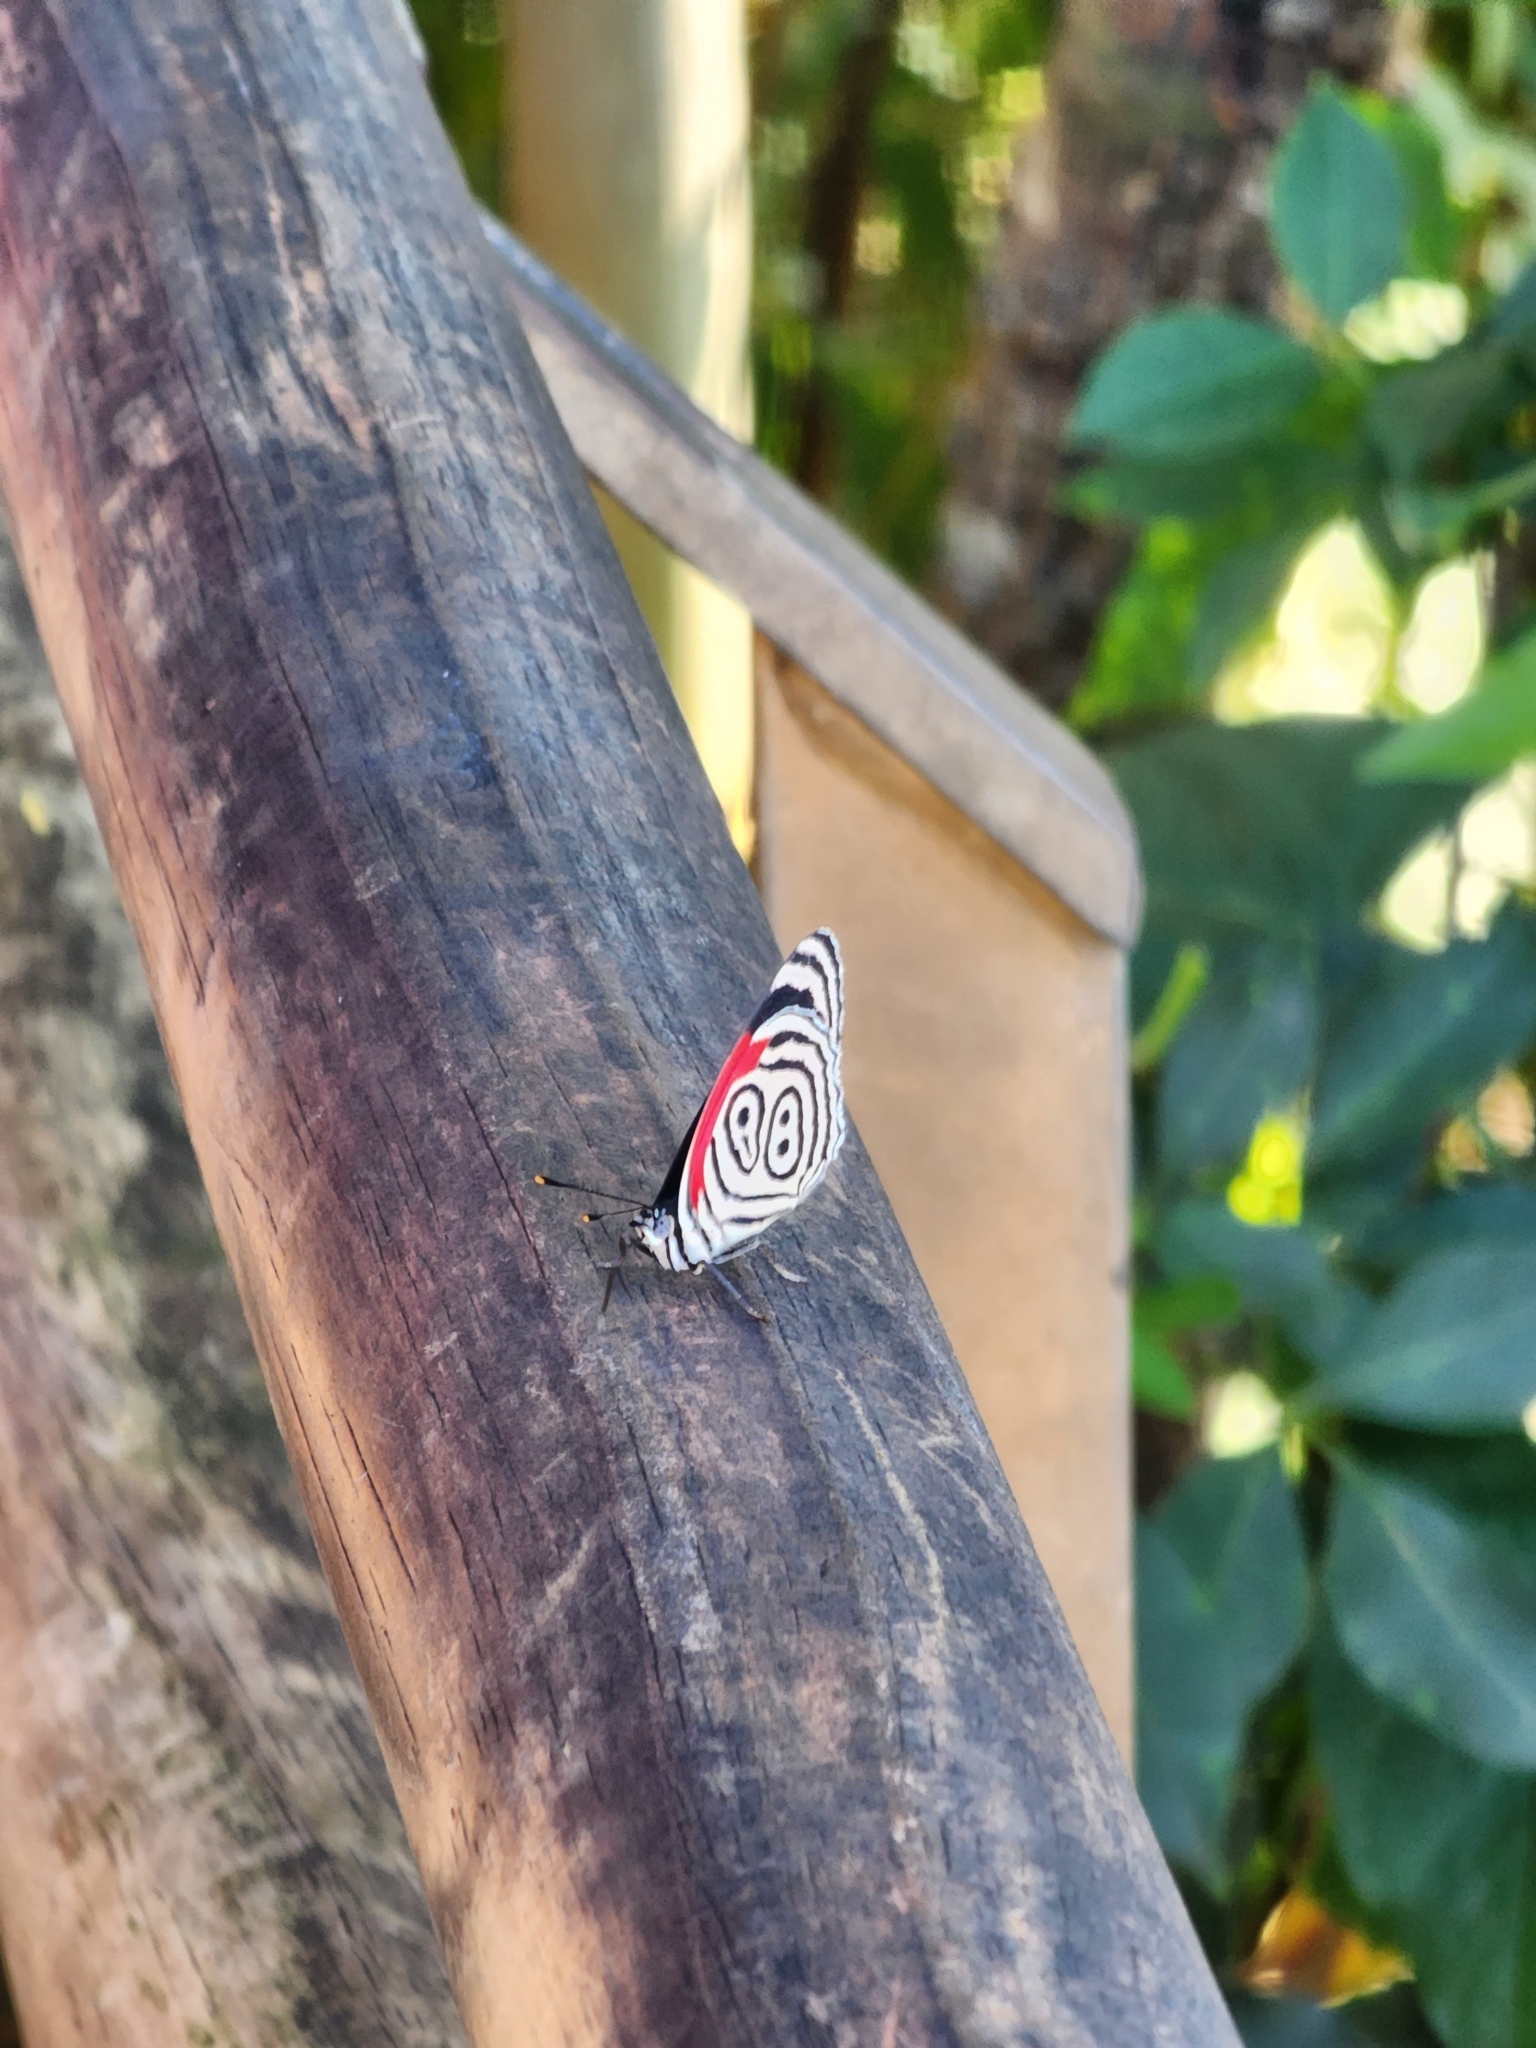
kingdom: Animalia
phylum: Arthropoda
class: Insecta
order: Lepidoptera
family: Nymphalidae
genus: Diaethria
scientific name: Diaethria clymena
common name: Widespread eighty-eight
